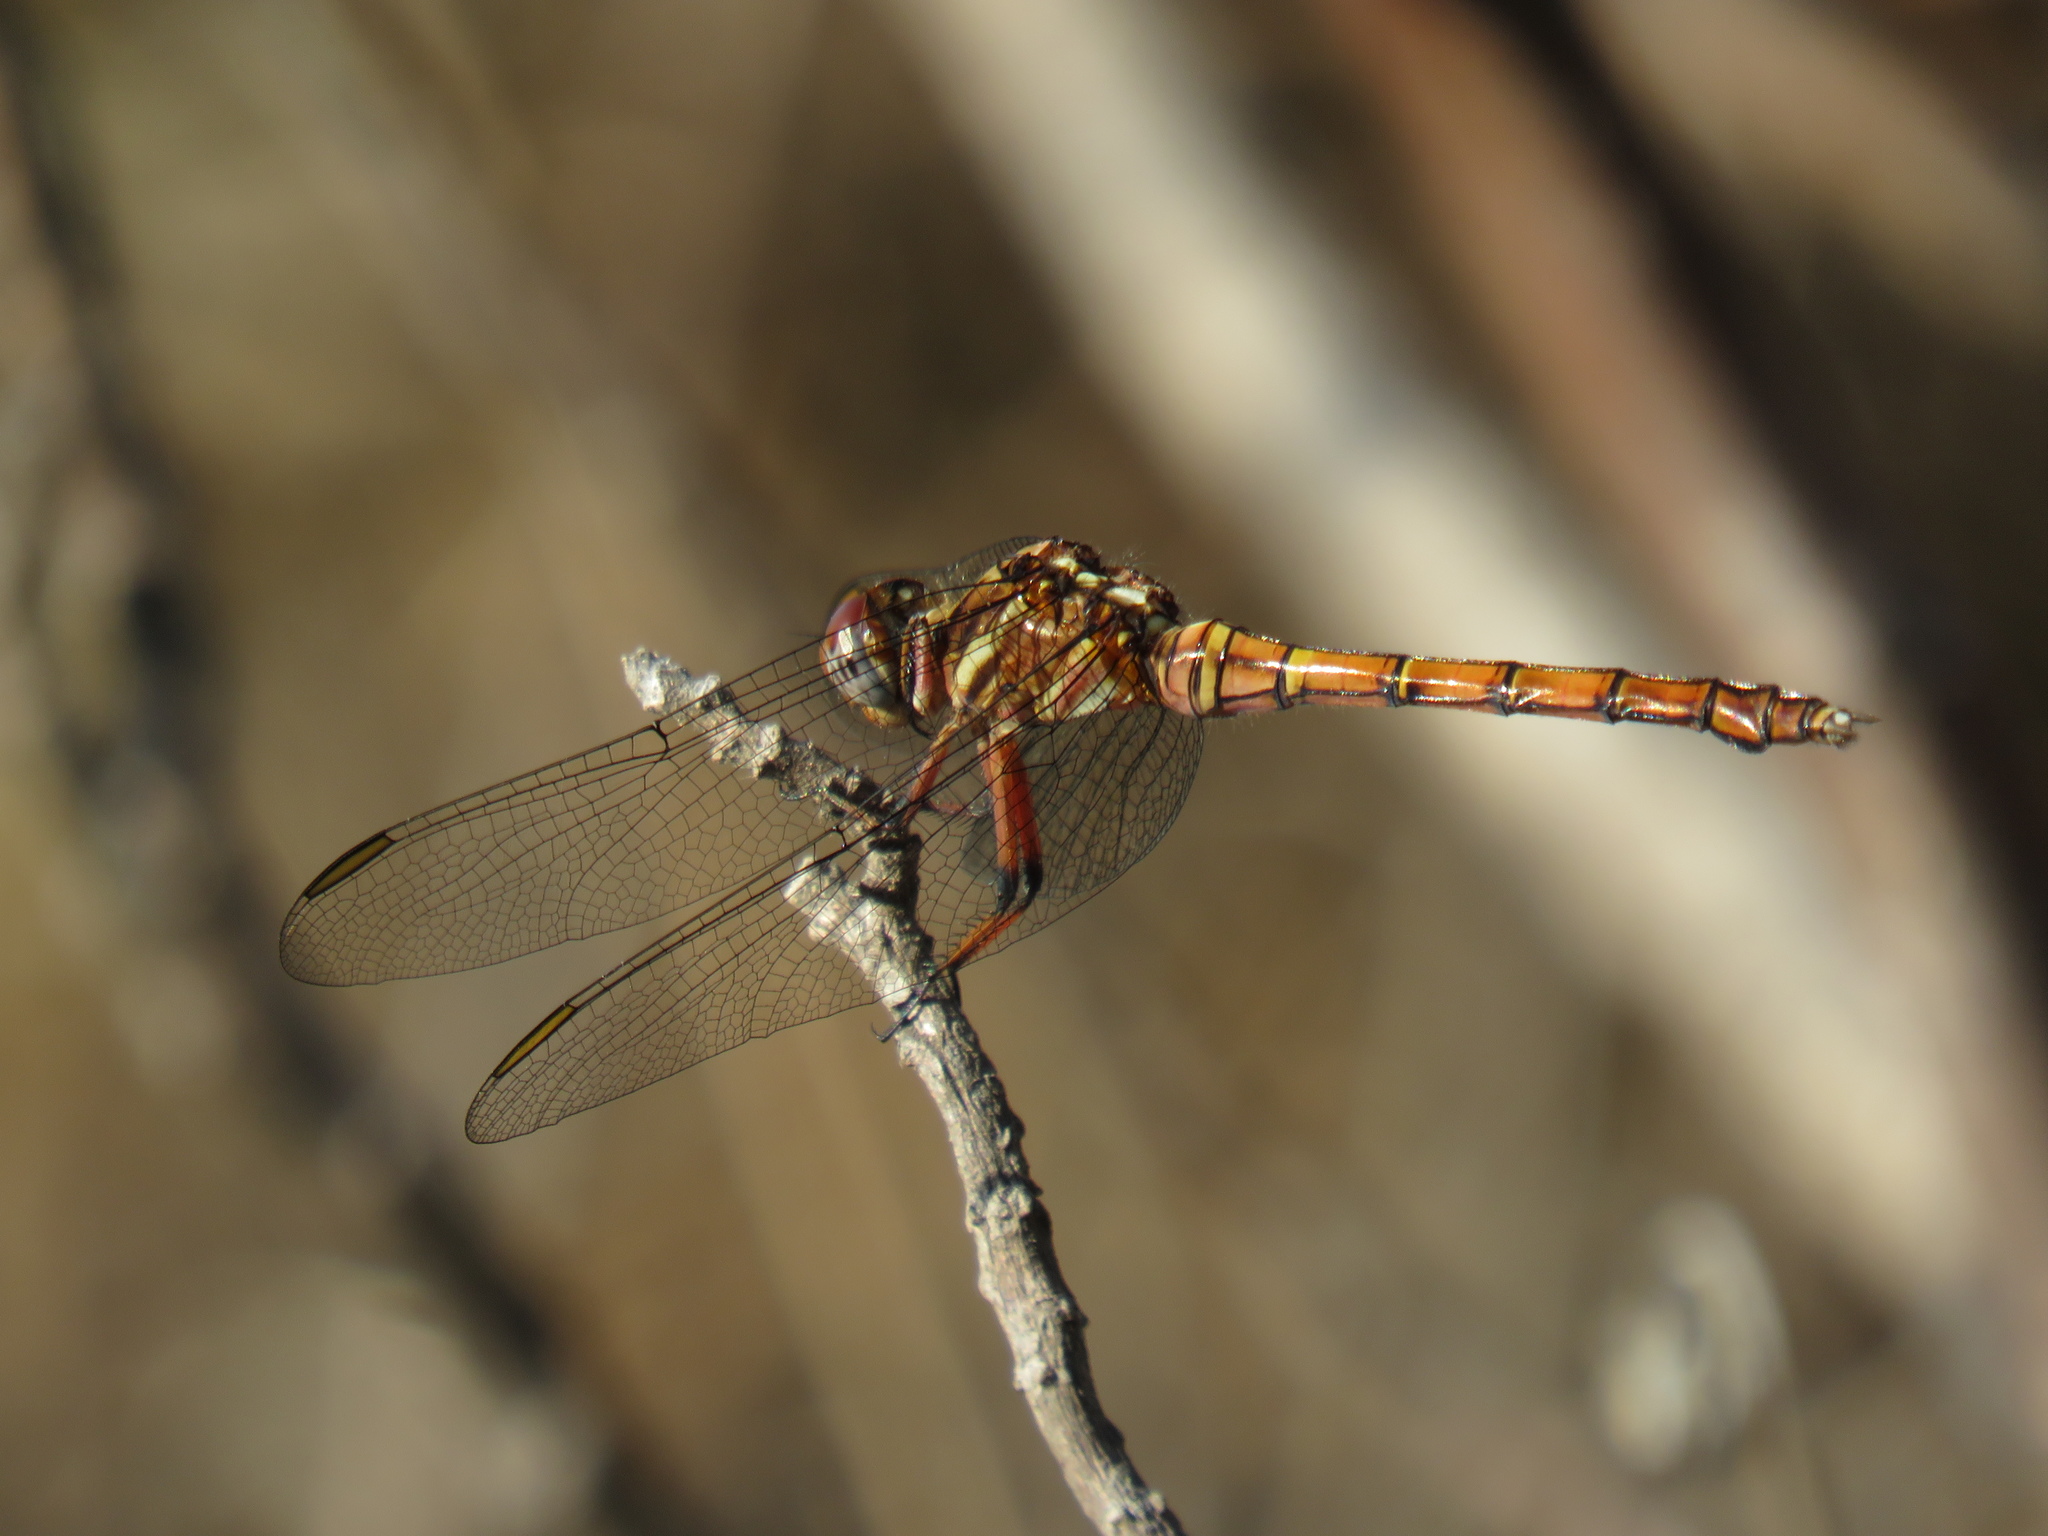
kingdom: Animalia
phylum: Arthropoda
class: Insecta
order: Odonata
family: Libellulidae
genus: Orthetrum
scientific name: Orthetrum julia
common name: Julia skimmer
